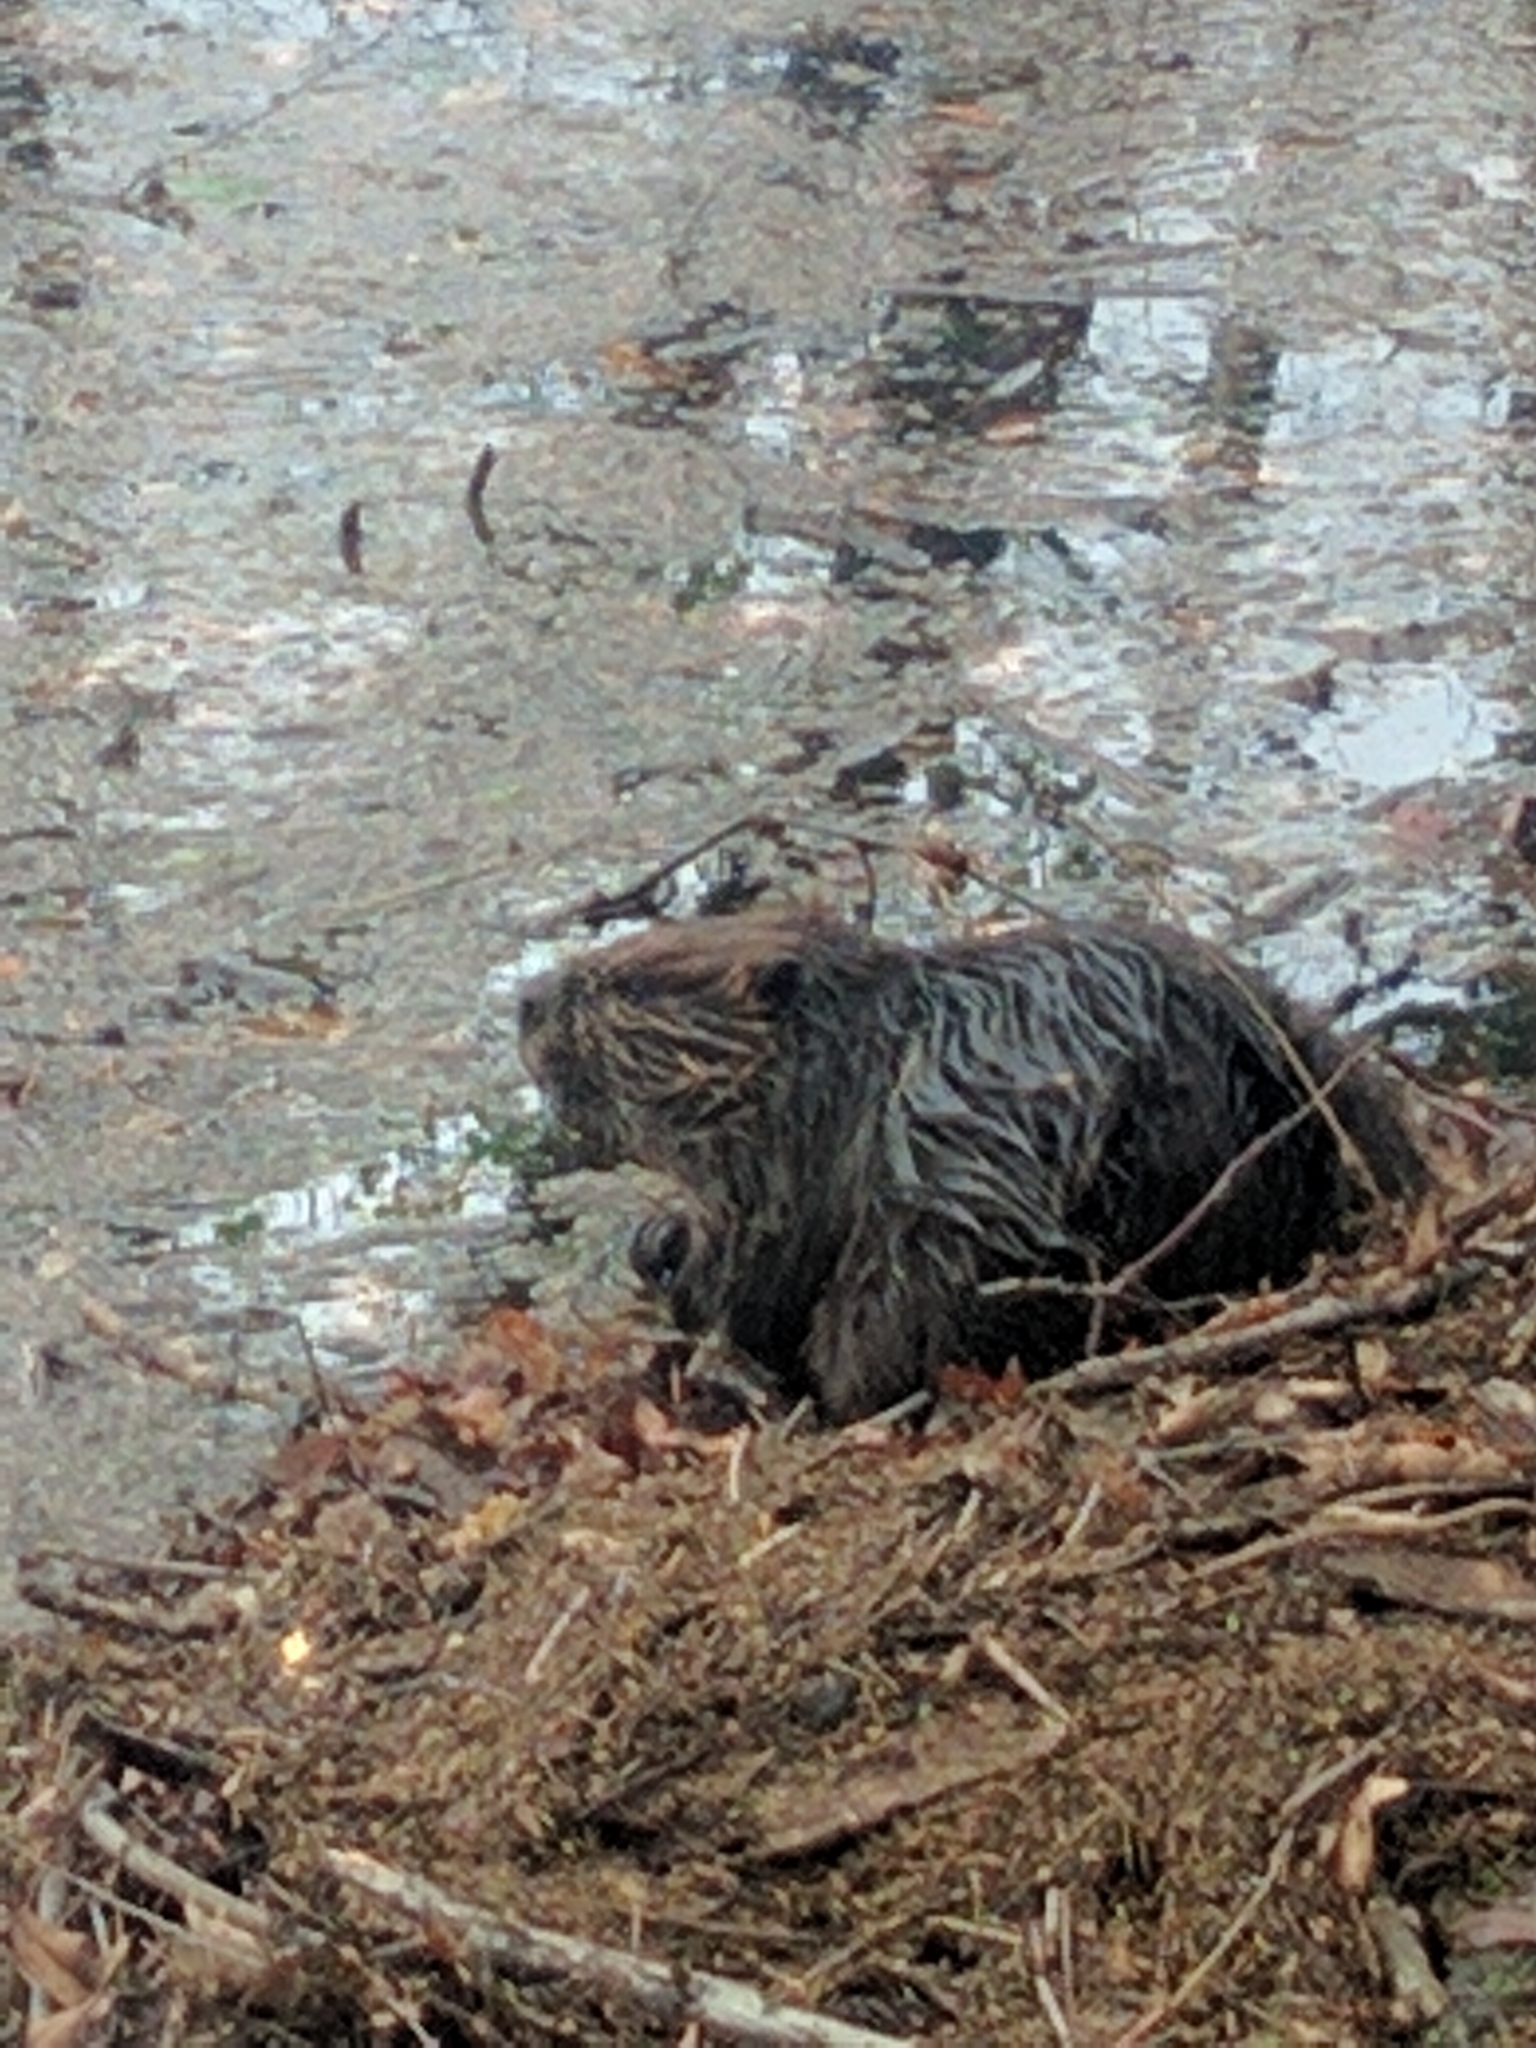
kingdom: Animalia
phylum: Chordata
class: Mammalia
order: Rodentia
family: Castoridae
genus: Castor
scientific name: Castor canadensis
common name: American beaver
